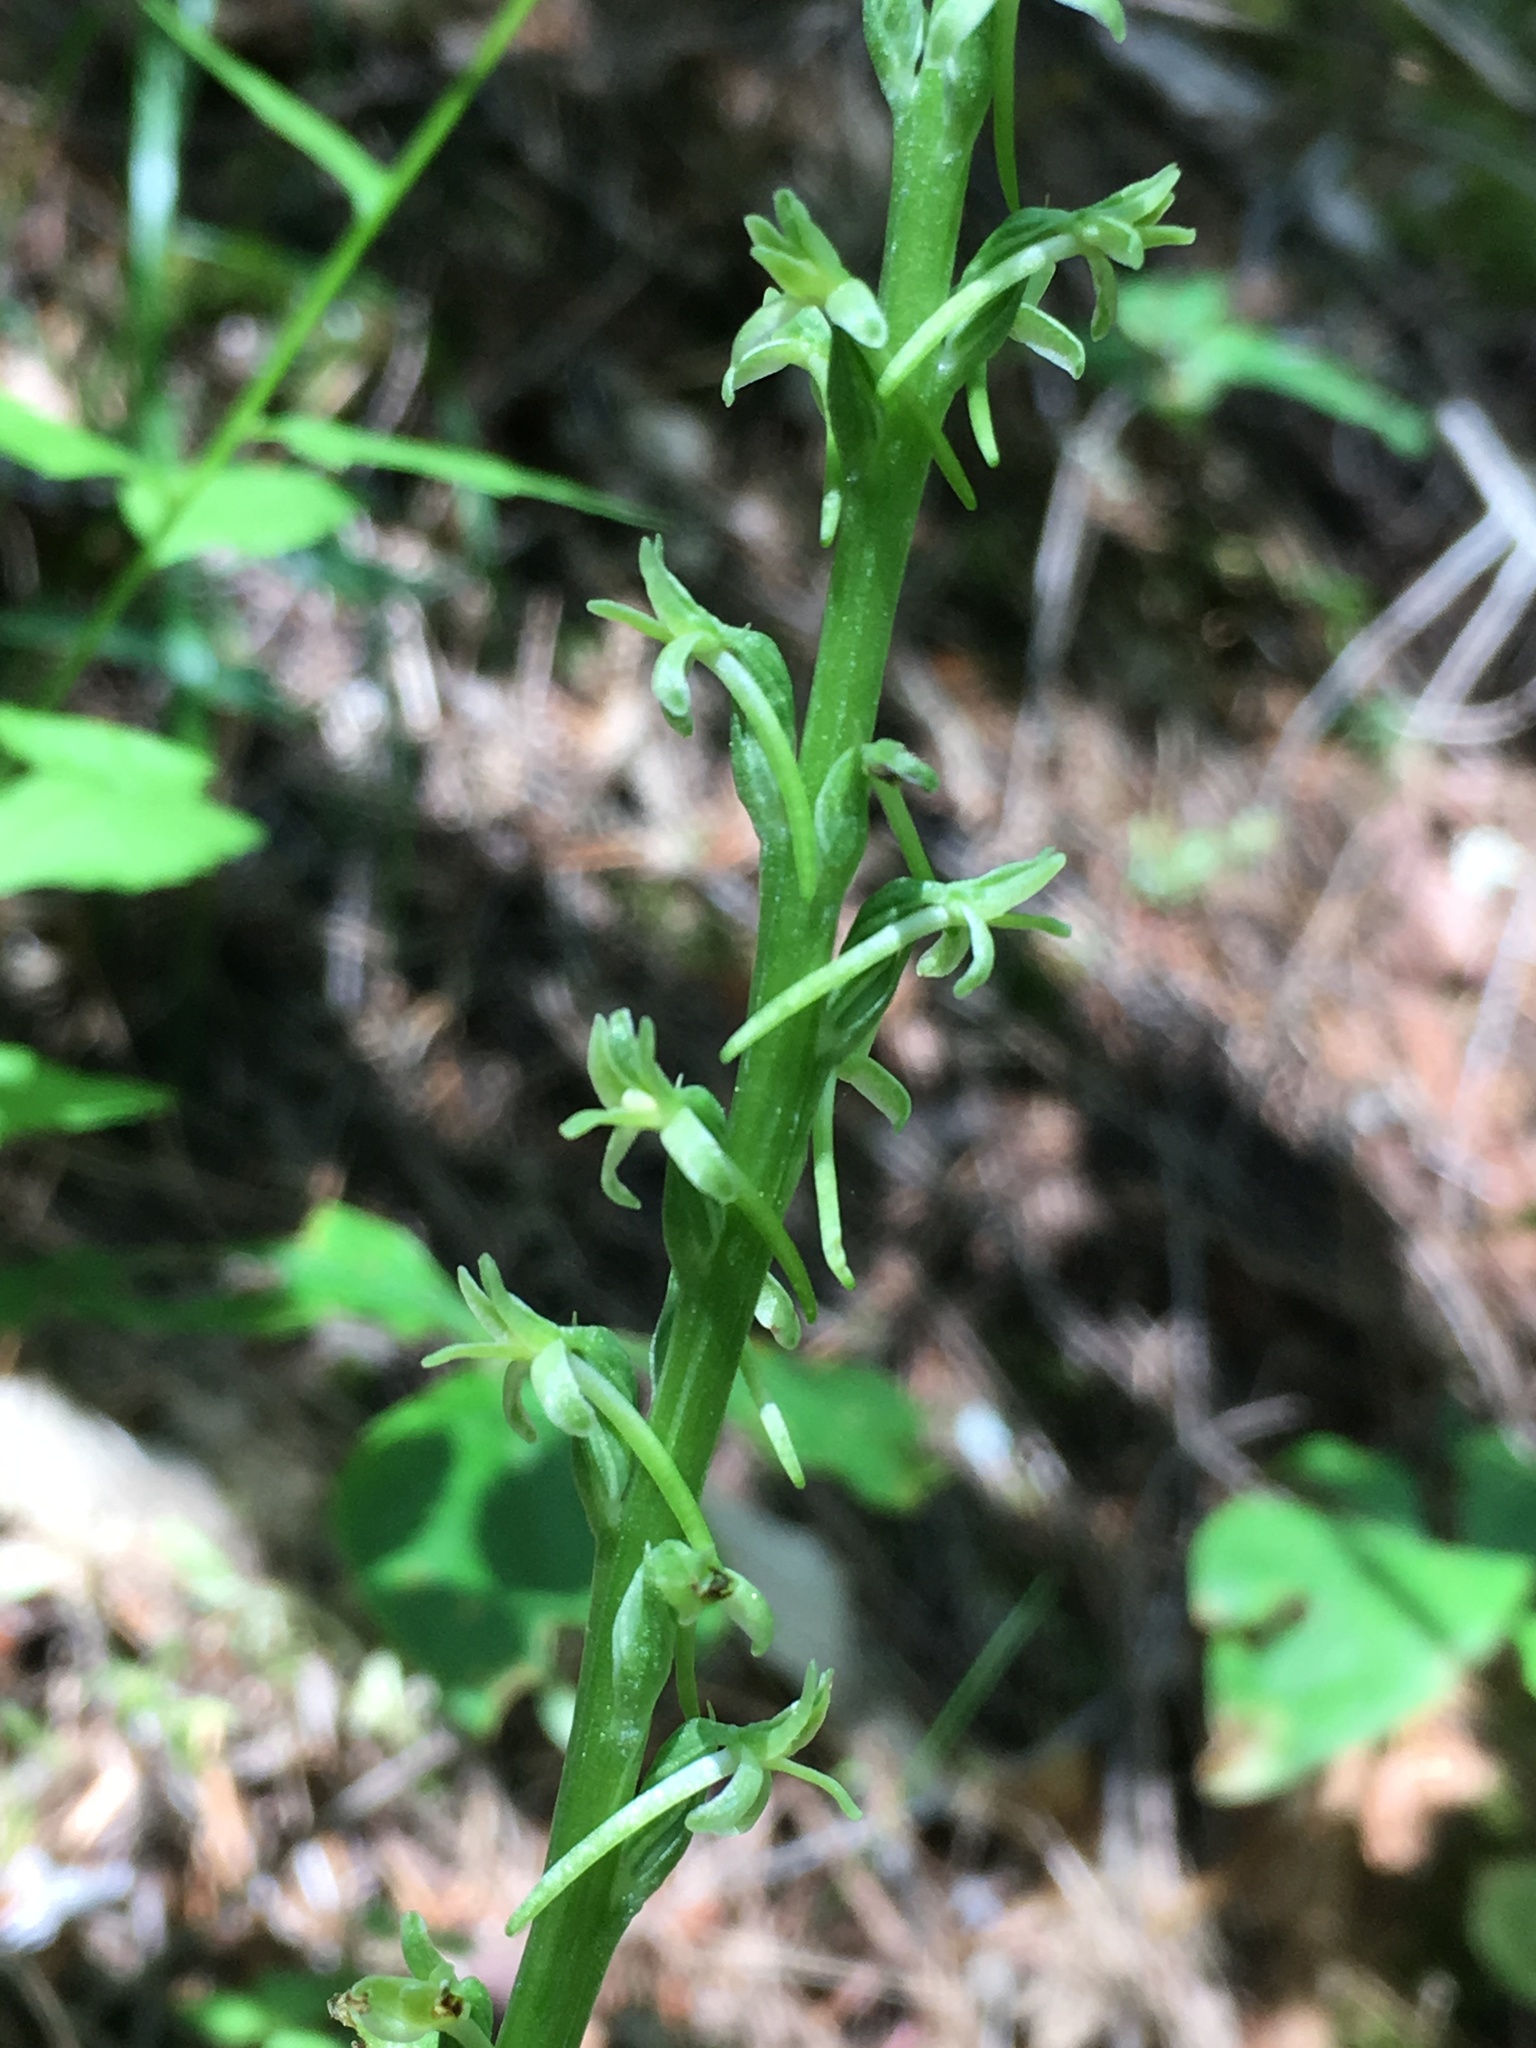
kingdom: Plantae
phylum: Tracheophyta
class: Liliopsida
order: Asparagales
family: Orchidaceae
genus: Platanthera
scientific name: Platanthera elongata
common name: Dense-flowered rein orchid
